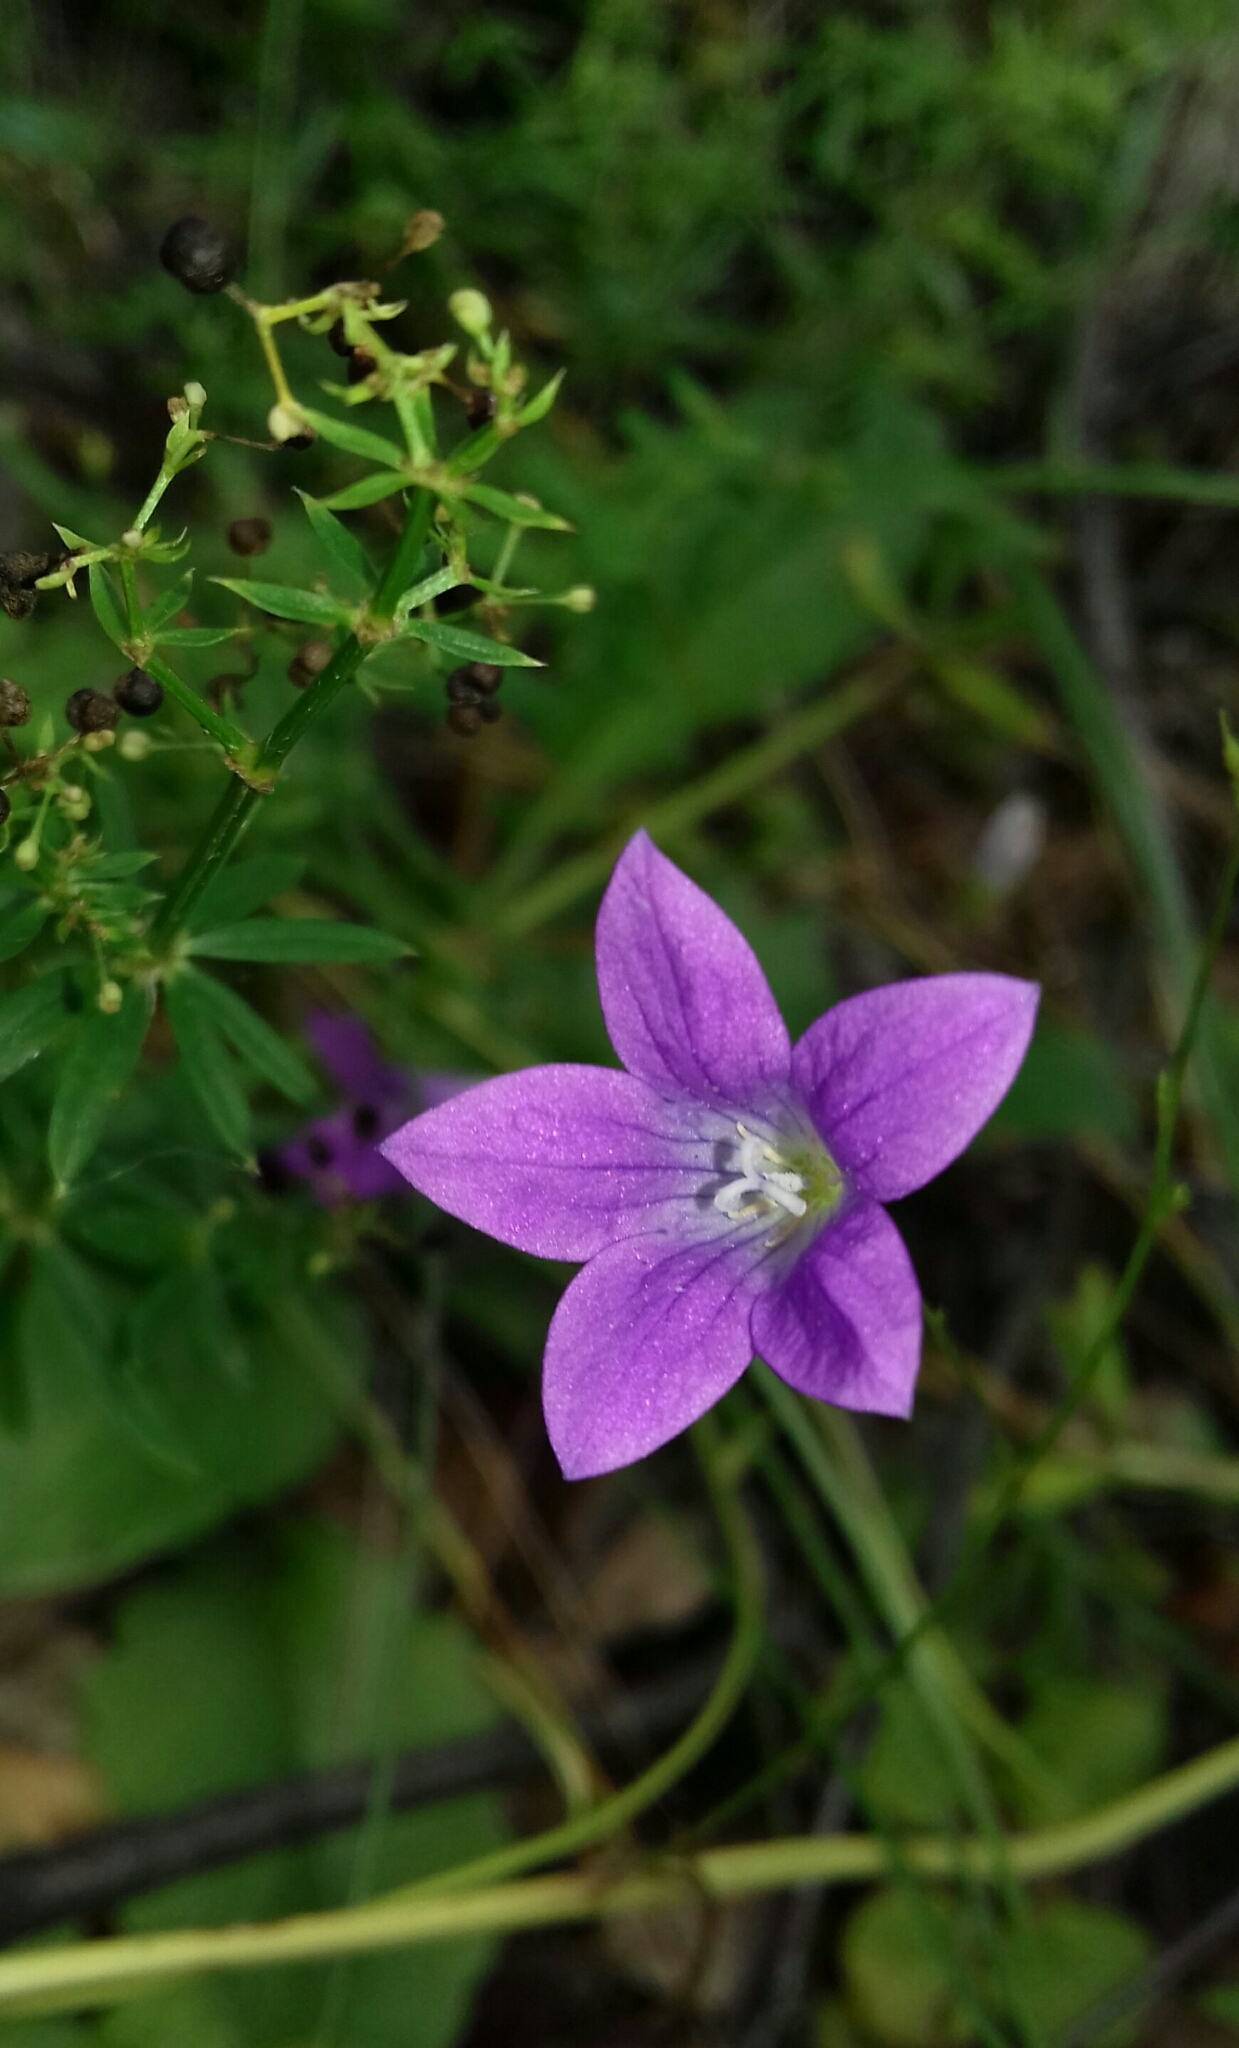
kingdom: Plantae
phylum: Tracheophyta
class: Magnoliopsida
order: Asterales
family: Campanulaceae
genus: Campanula
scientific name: Campanula patula
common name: Spreading bellflower
